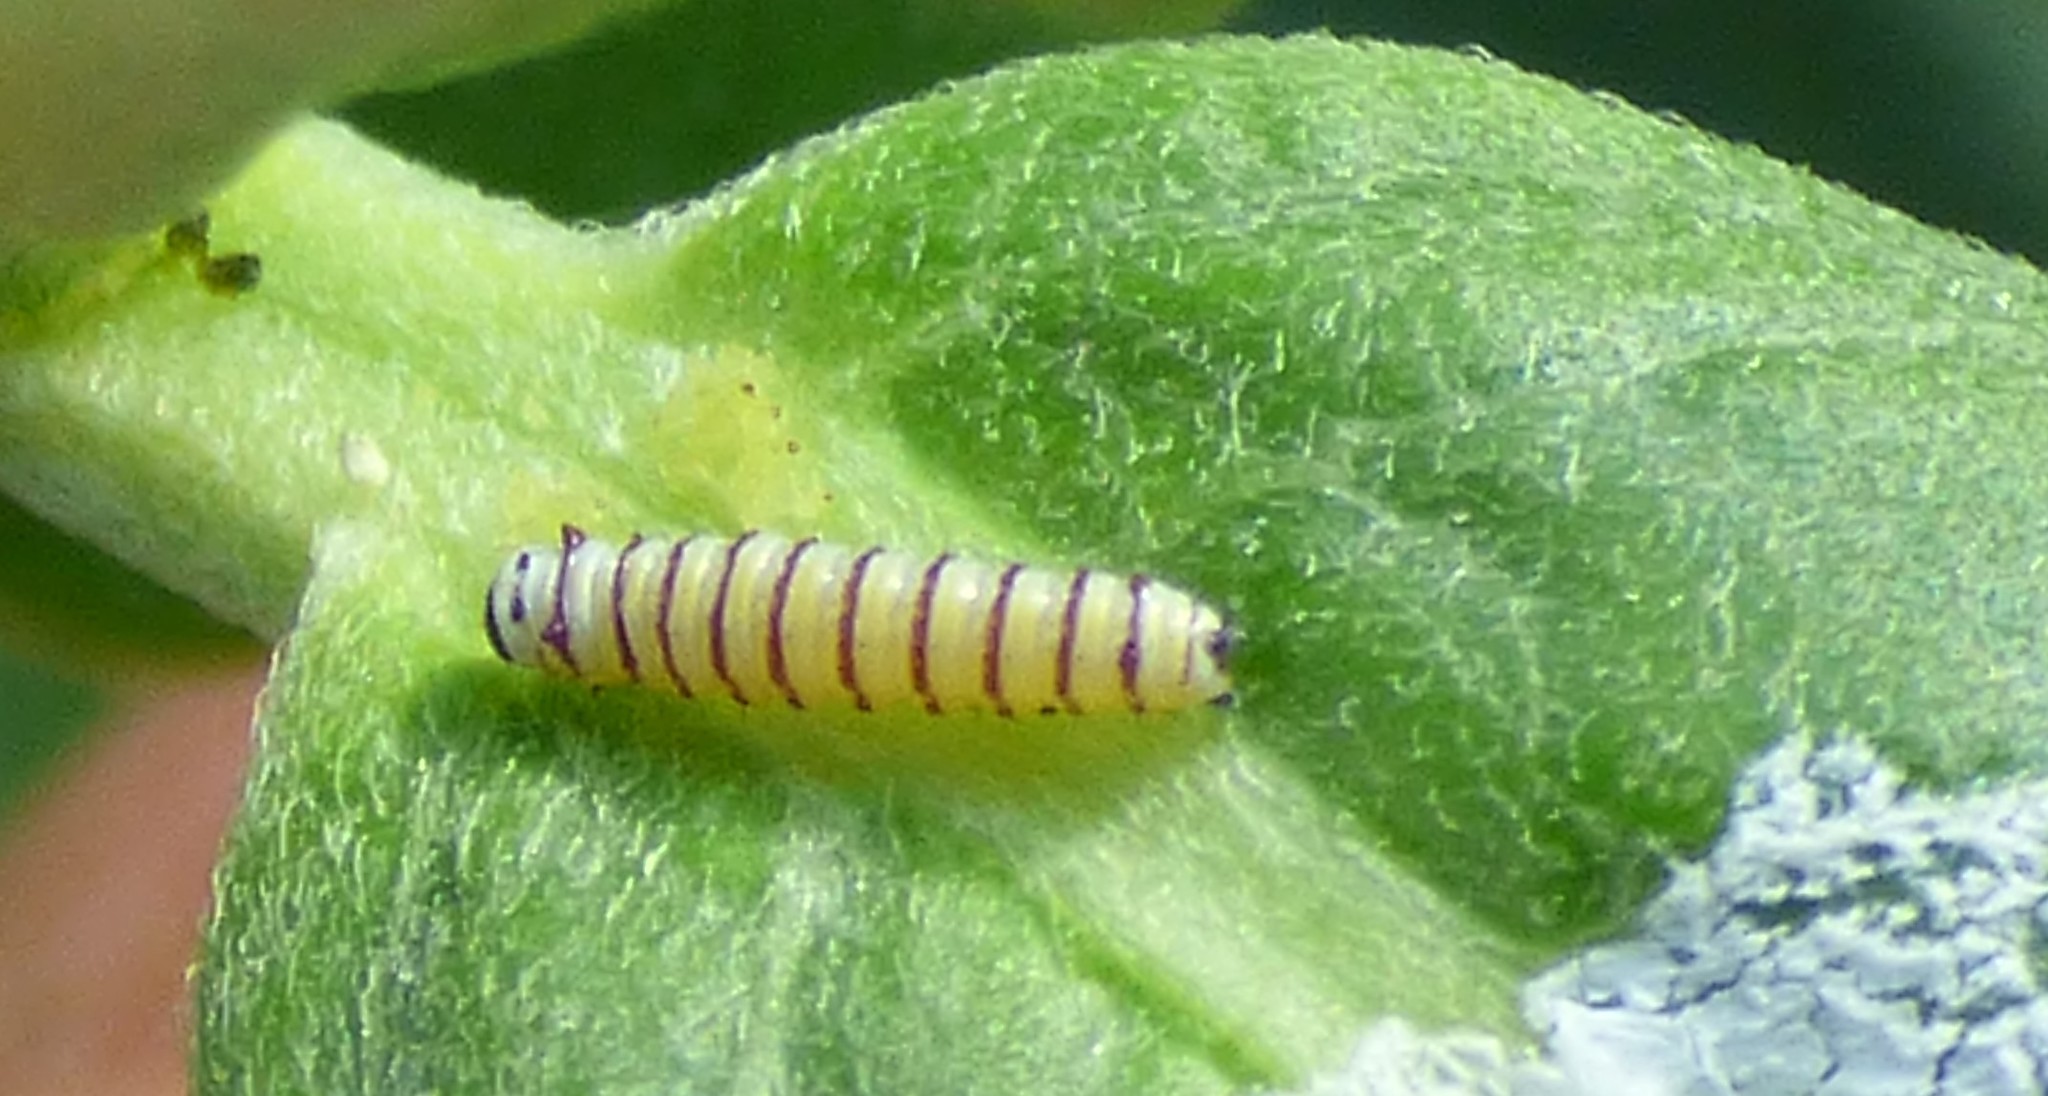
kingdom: Animalia
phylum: Arthropoda
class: Insecta
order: Lepidoptera
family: Nymphalidae
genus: Danaus
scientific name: Danaus plexippus
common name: Monarch
